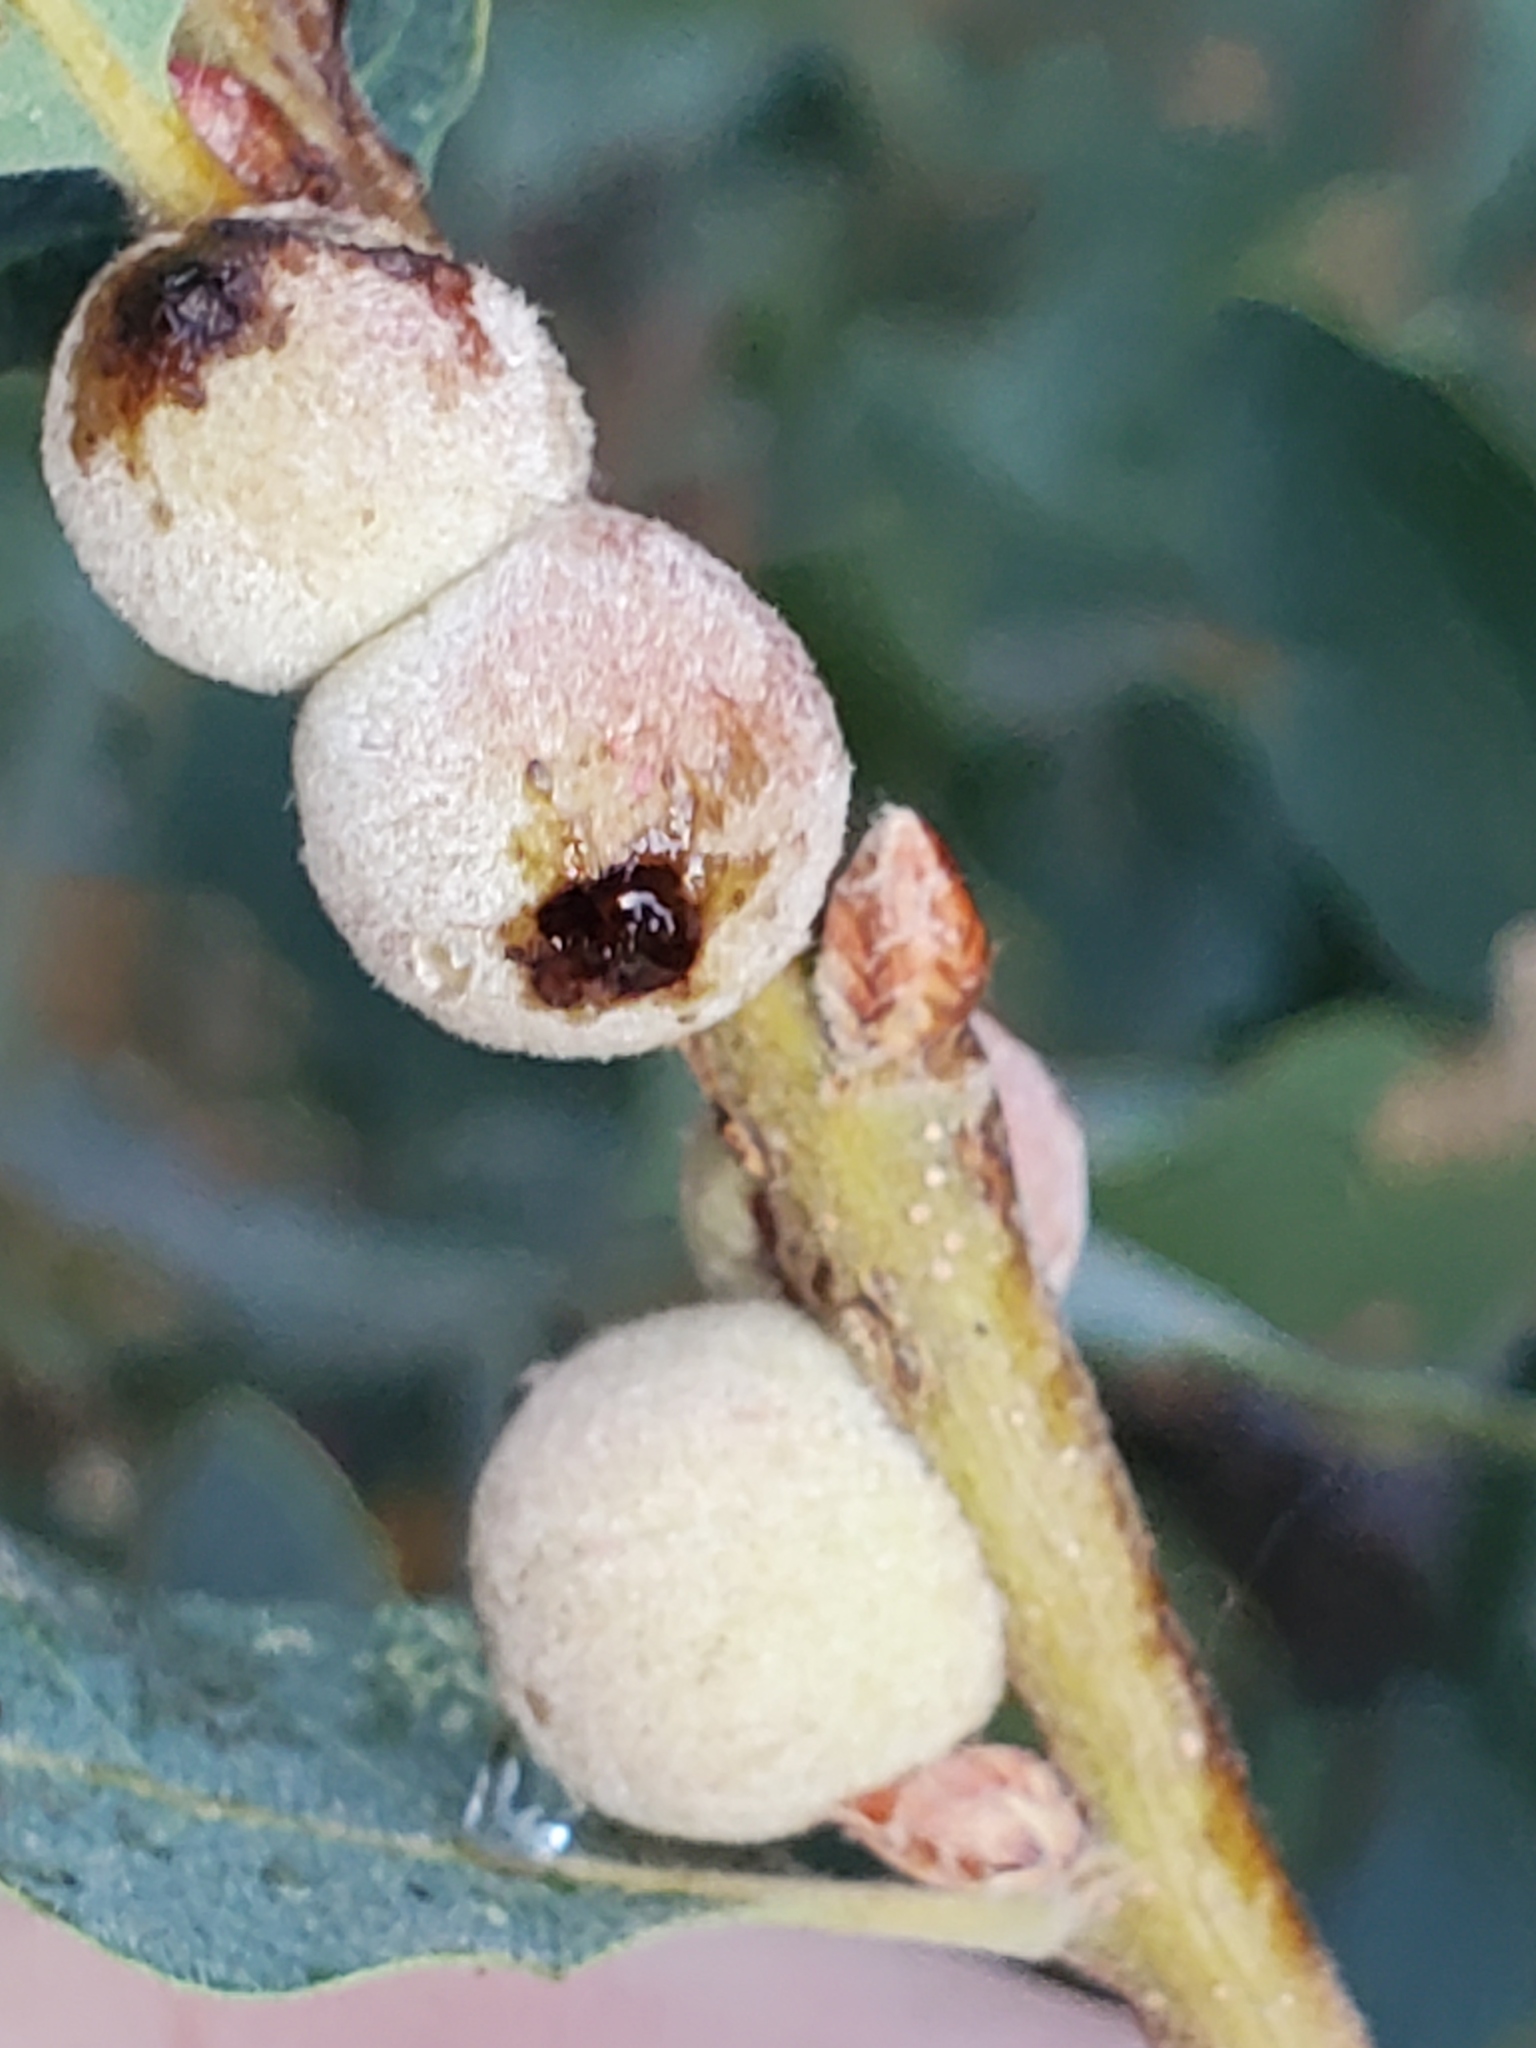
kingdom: Animalia
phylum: Arthropoda
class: Insecta
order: Hymenoptera
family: Cynipidae
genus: Disholcaspis
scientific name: Disholcaspis
